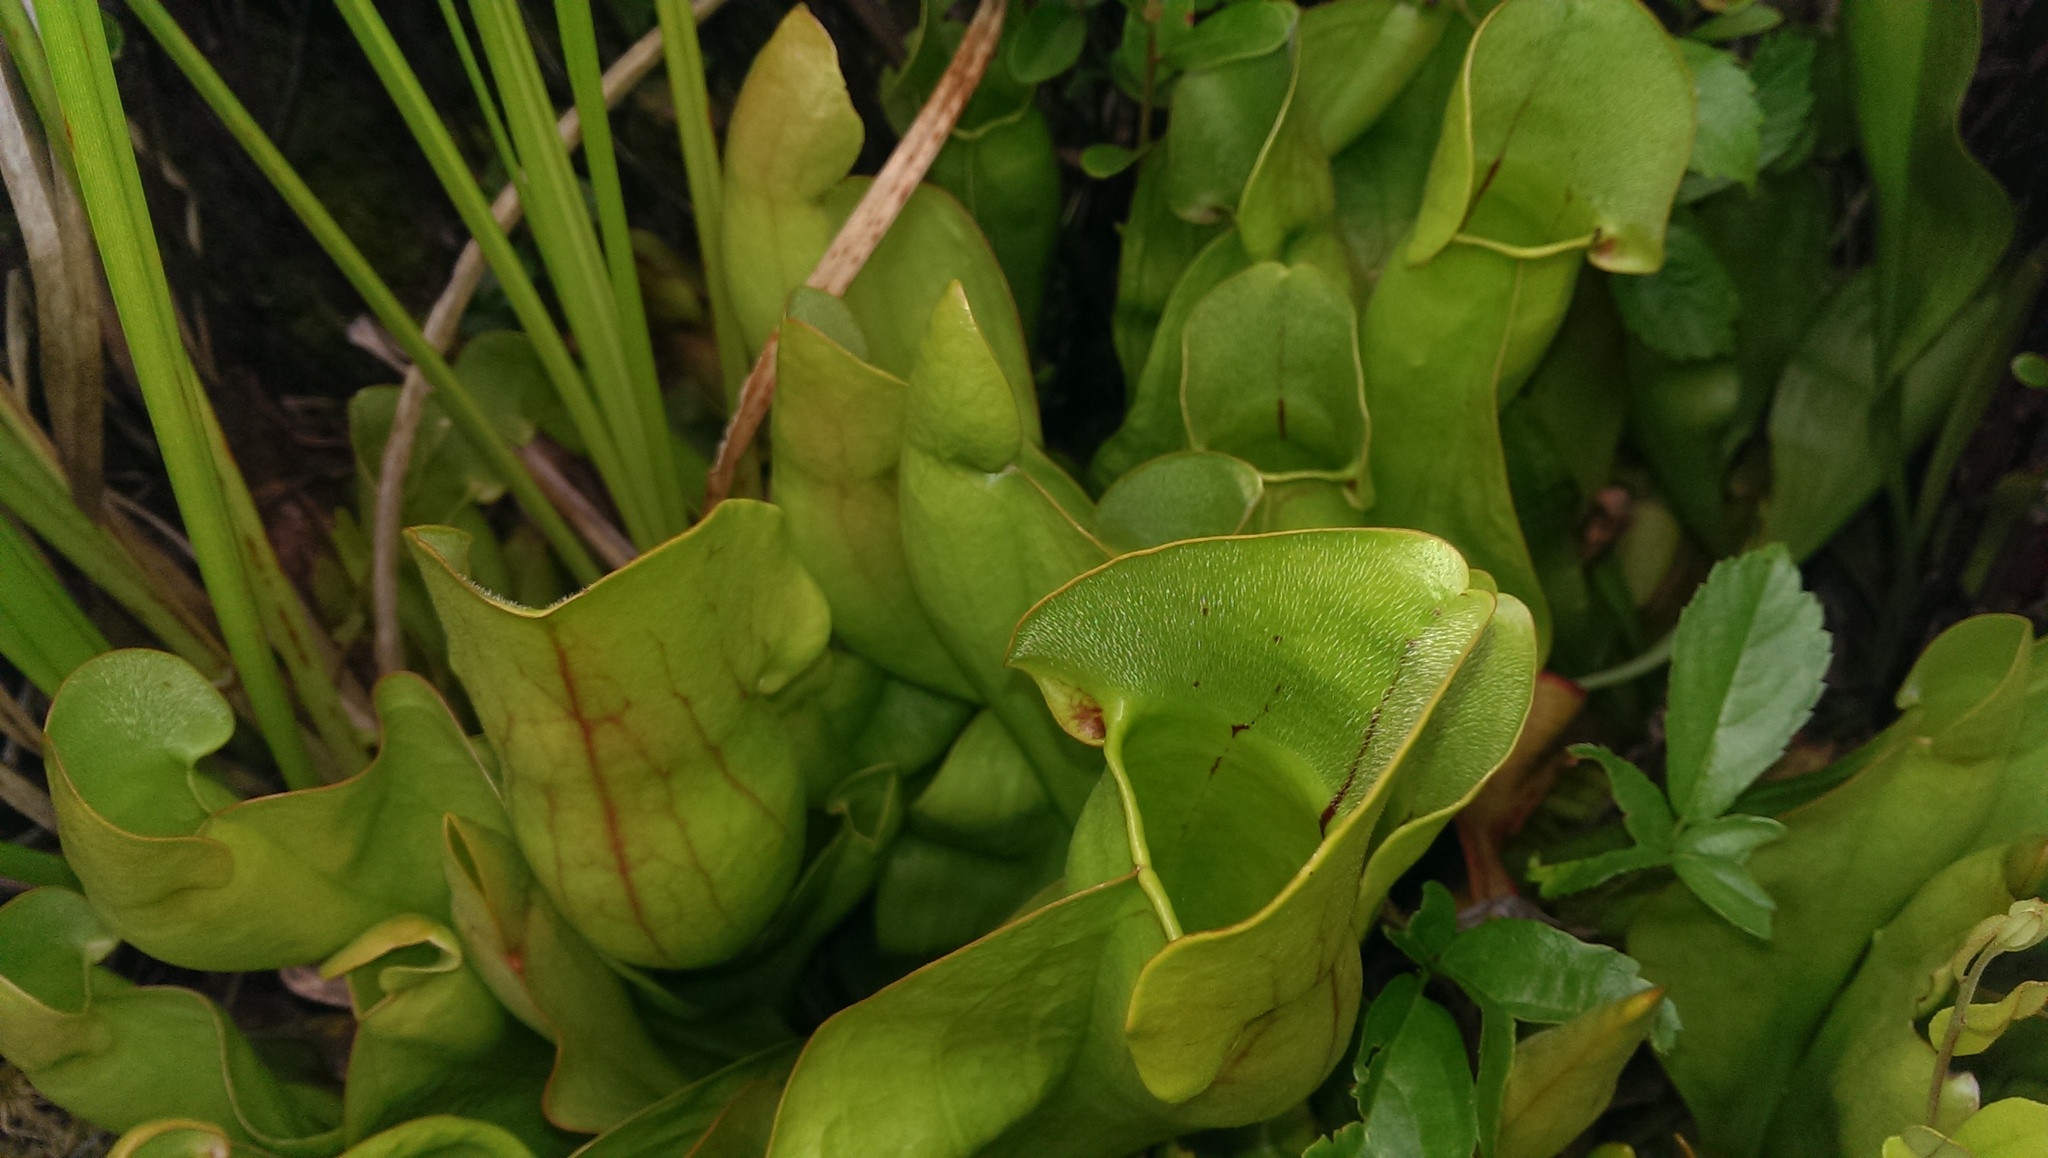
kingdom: Plantae
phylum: Tracheophyta
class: Magnoliopsida
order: Ericales
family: Sarraceniaceae
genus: Sarracenia
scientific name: Sarracenia purpurea
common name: Pitcherplant
